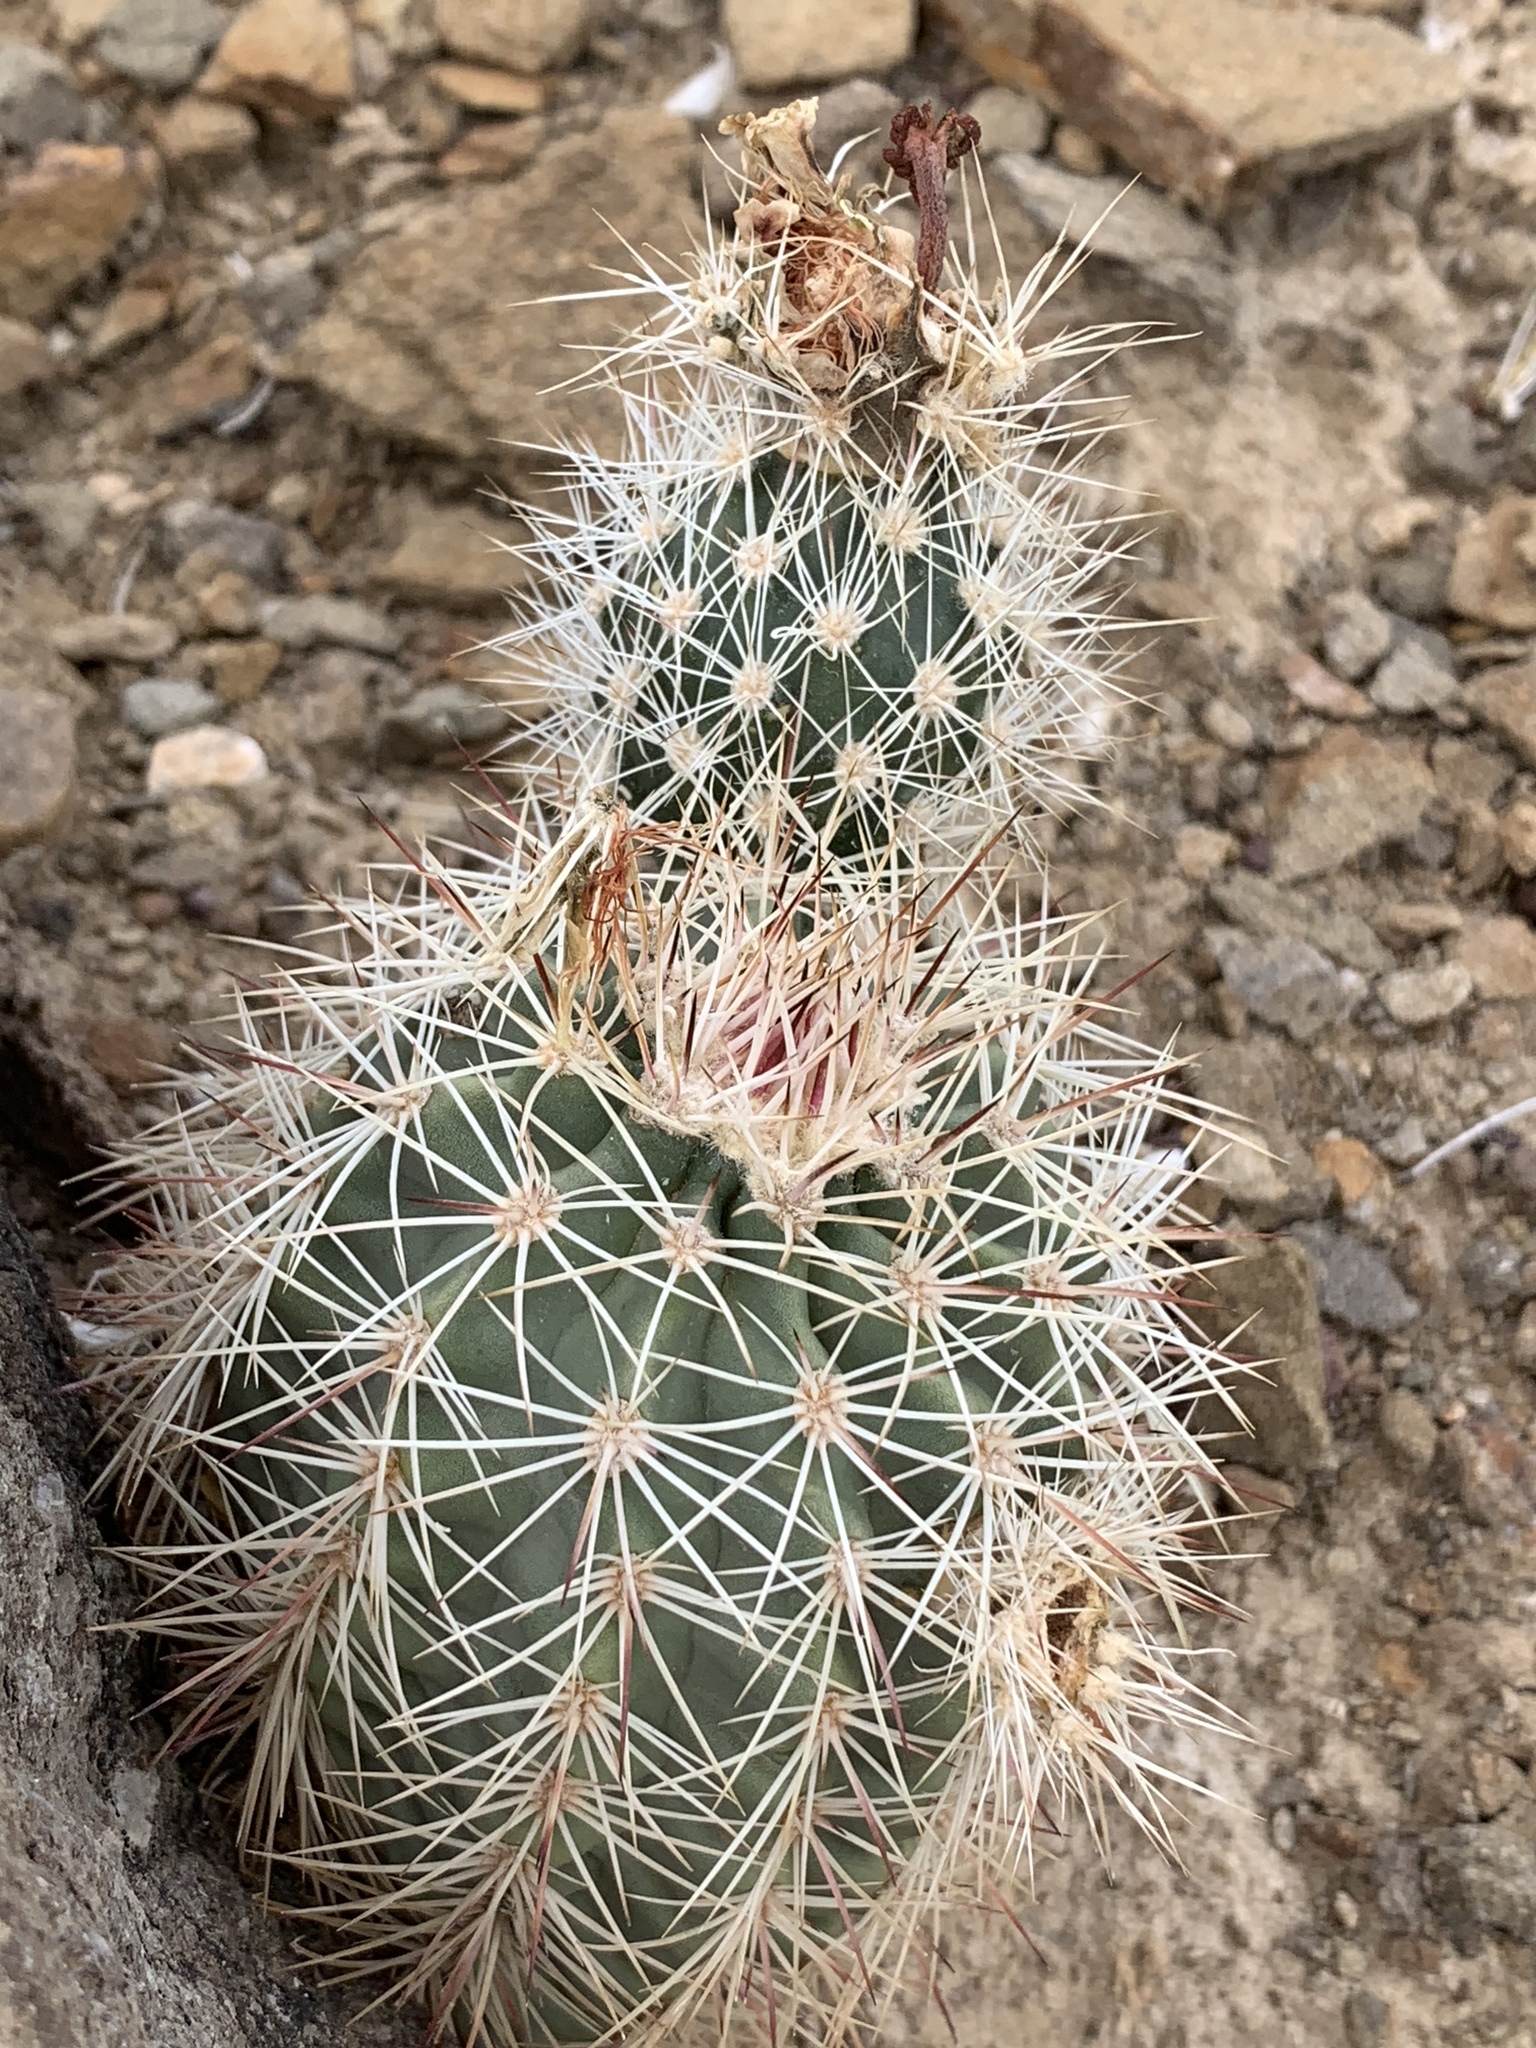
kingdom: Plantae
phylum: Tracheophyta
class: Magnoliopsida
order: Caryophyllales
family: Cactaceae
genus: Echinocereus
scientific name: Echinocereus roetteri
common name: Lloyd's hedgehog cactus
